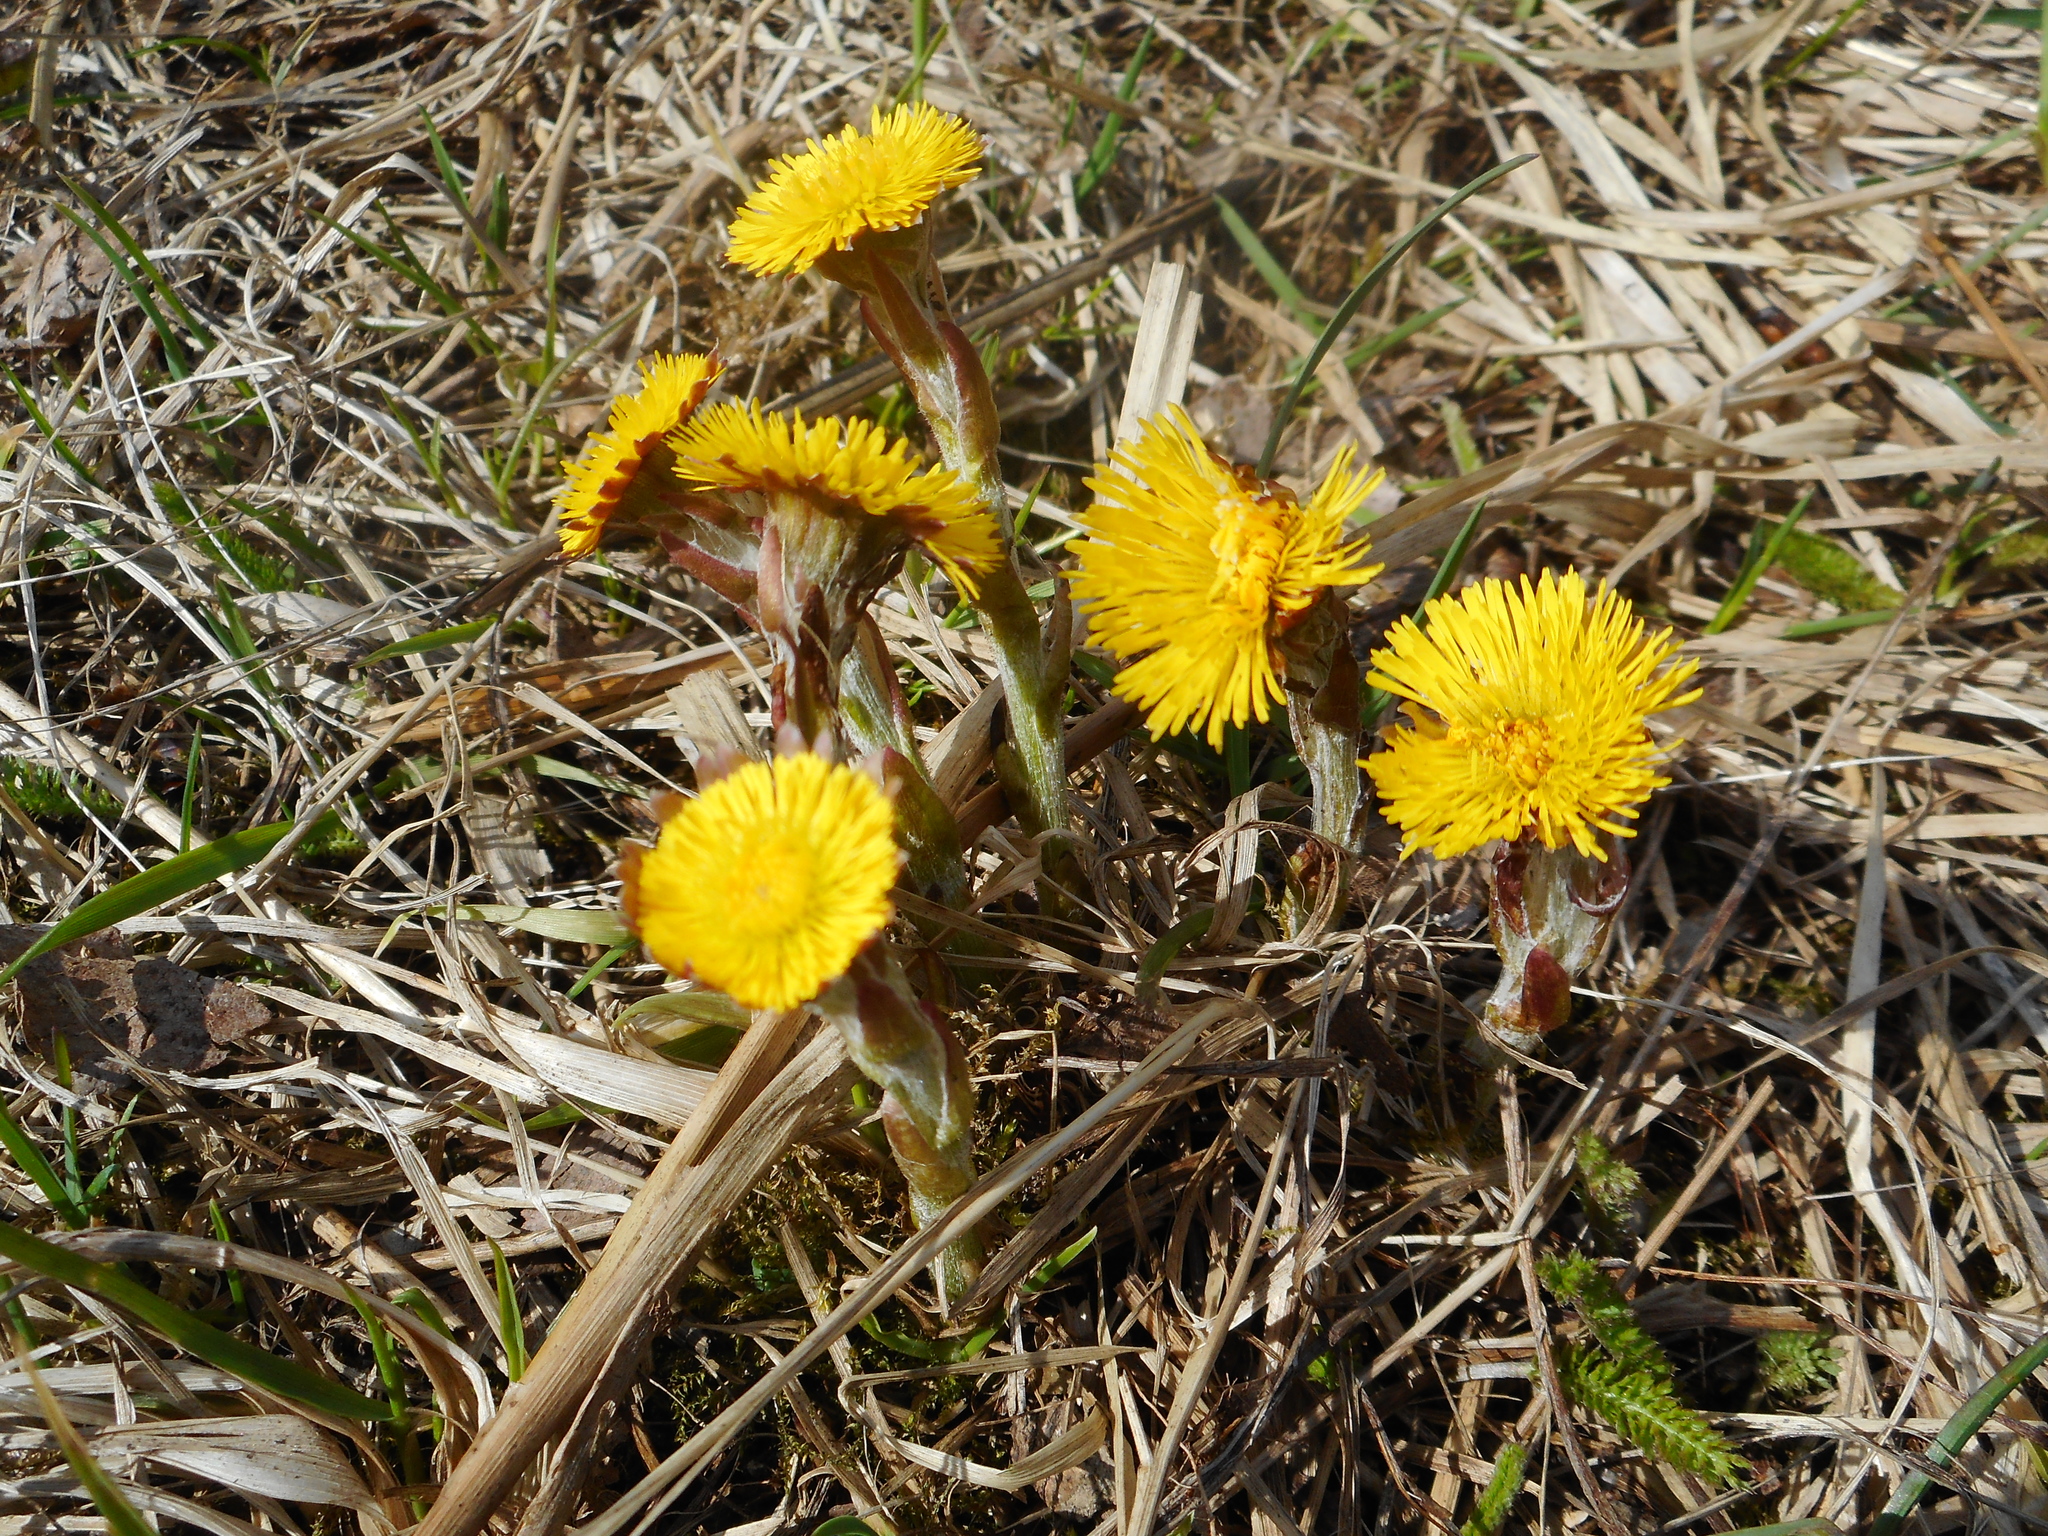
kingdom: Plantae
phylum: Tracheophyta
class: Magnoliopsida
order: Asterales
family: Asteraceae
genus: Tussilago
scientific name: Tussilago farfara
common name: Coltsfoot
